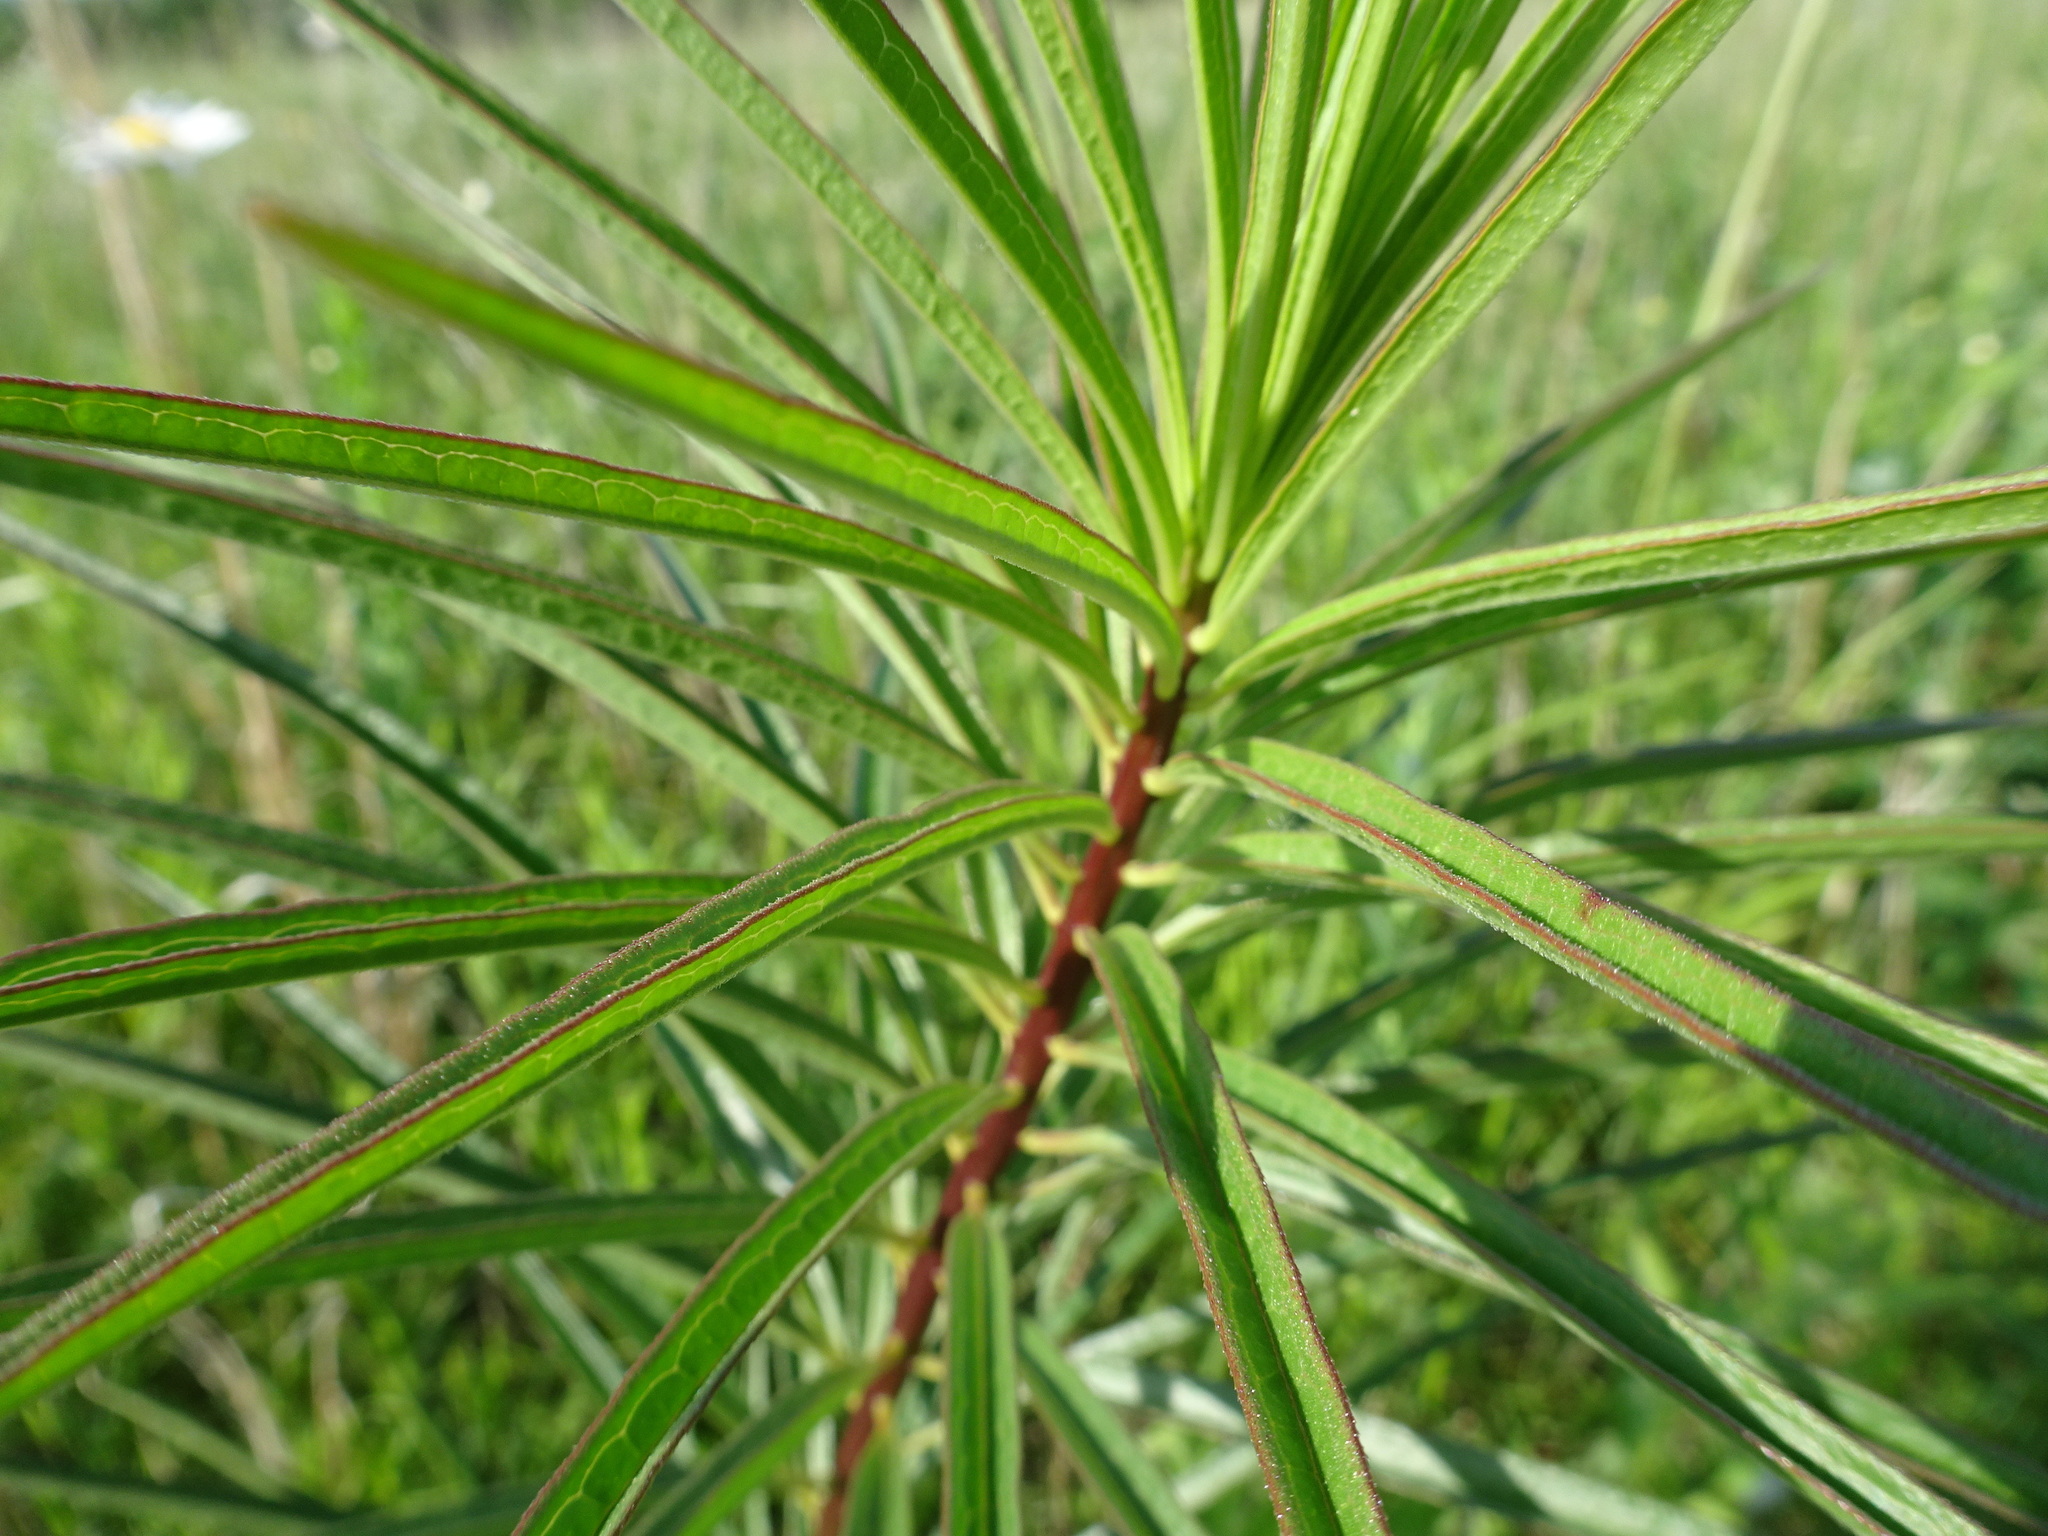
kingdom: Plantae
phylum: Tracheophyta
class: Magnoliopsida
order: Gentianales
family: Apocynaceae
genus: Asclepias
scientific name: Asclepias hirtella
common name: Prairie milkweed
